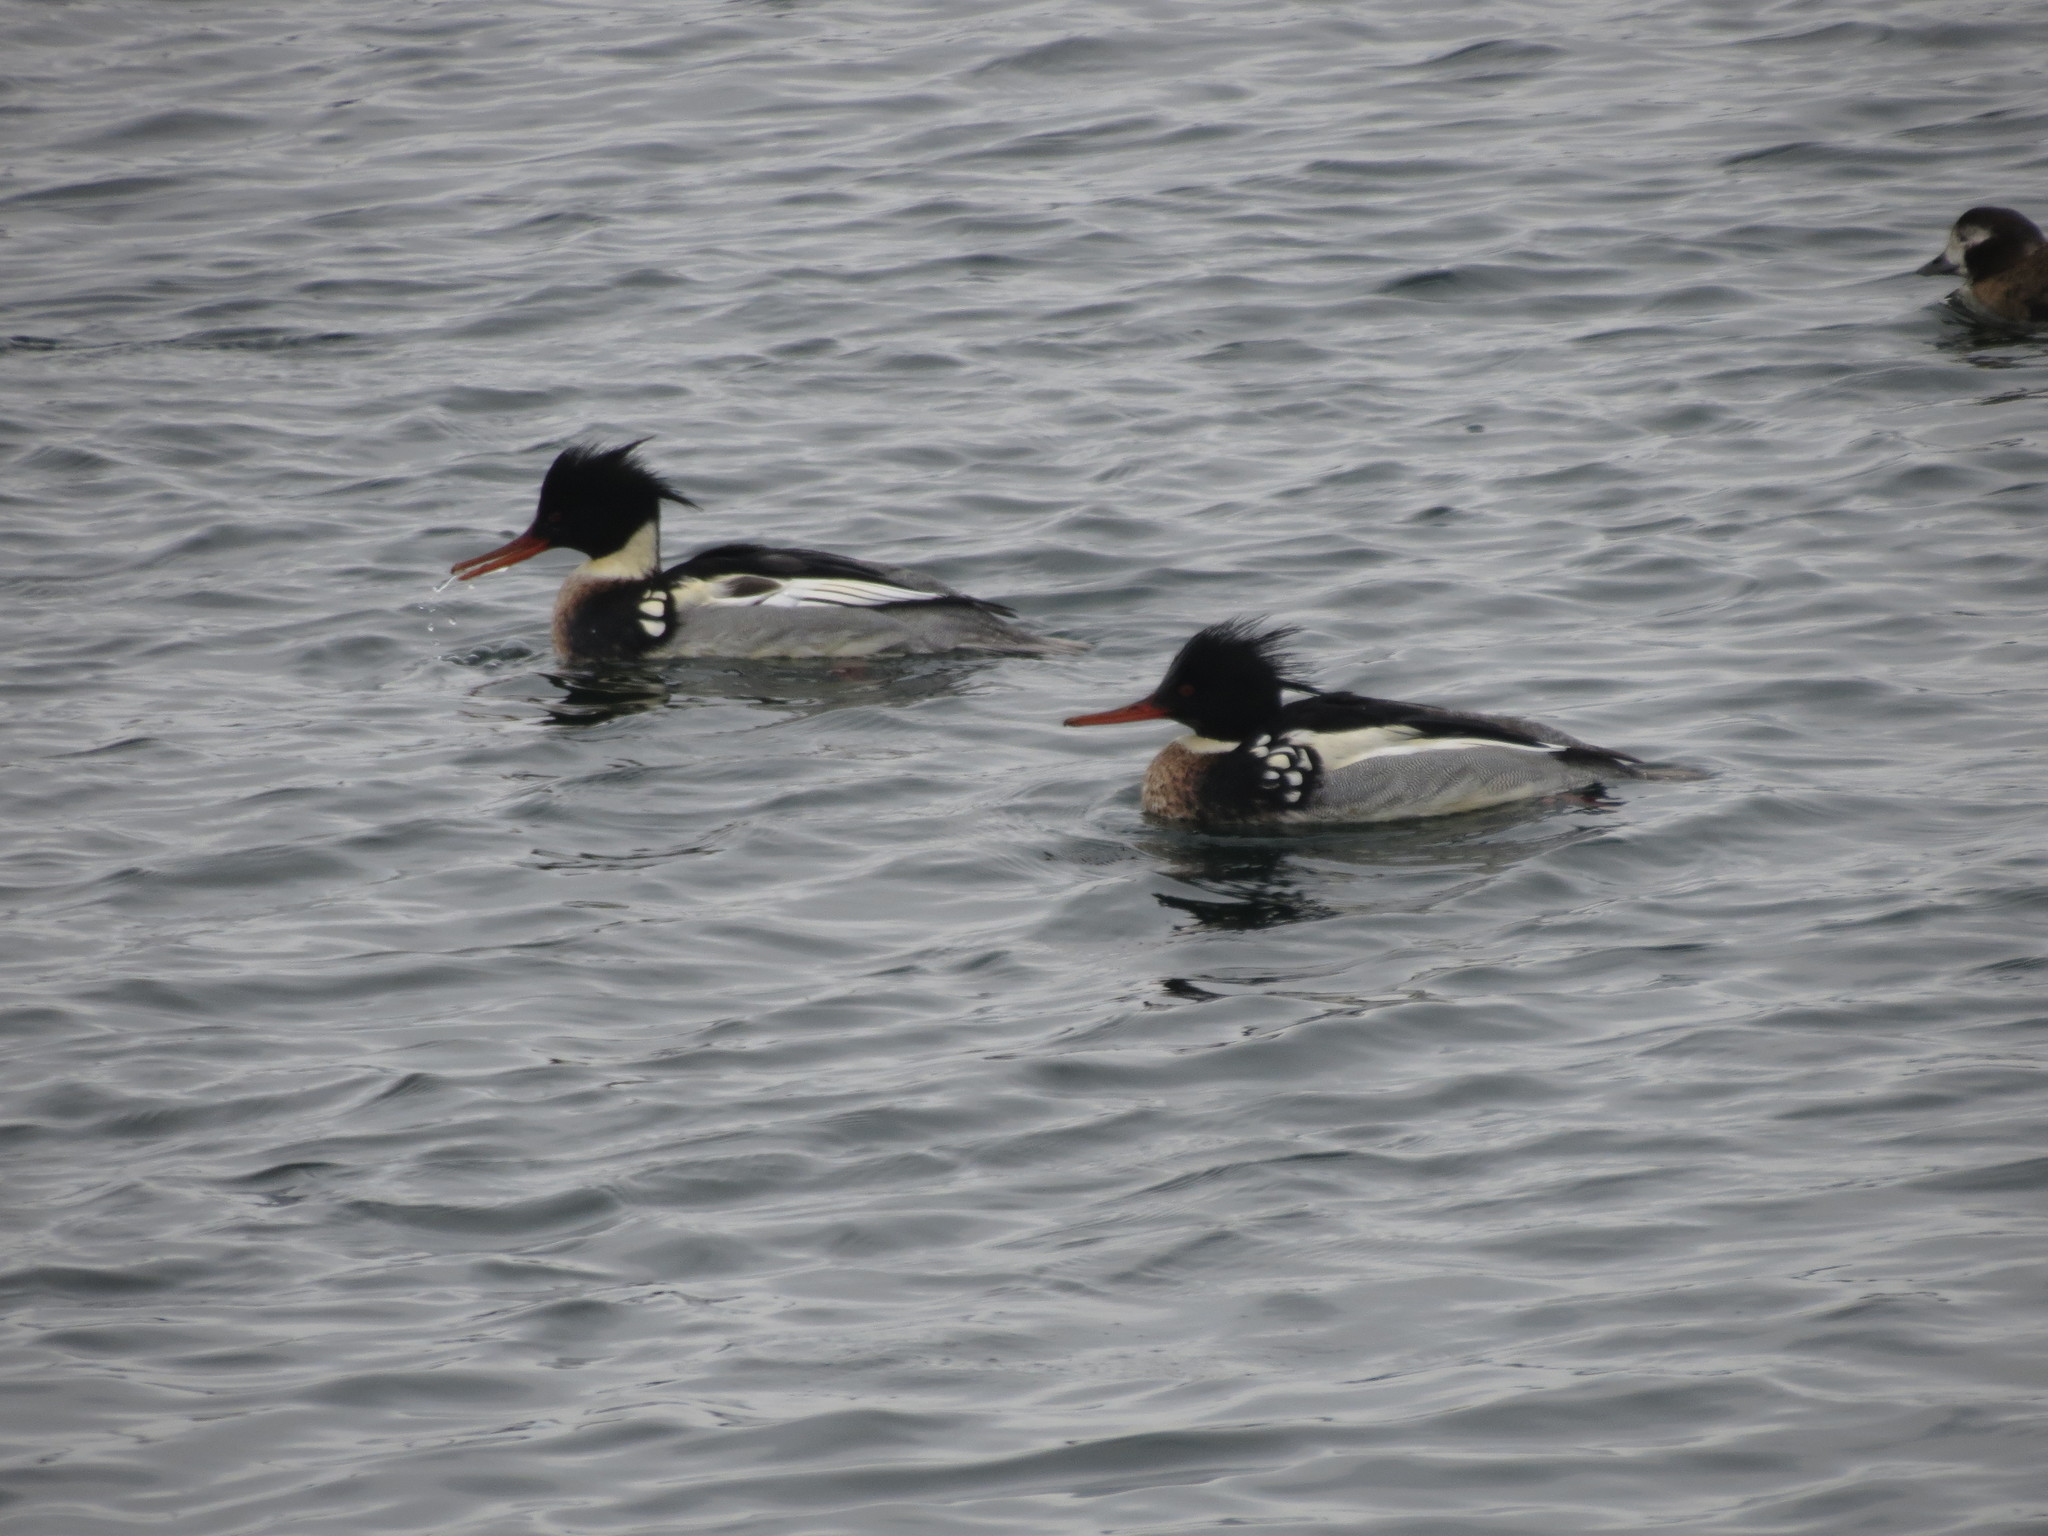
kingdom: Animalia
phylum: Chordata
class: Aves
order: Anseriformes
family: Anatidae
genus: Mergus
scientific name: Mergus serrator
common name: Red-breasted merganser
